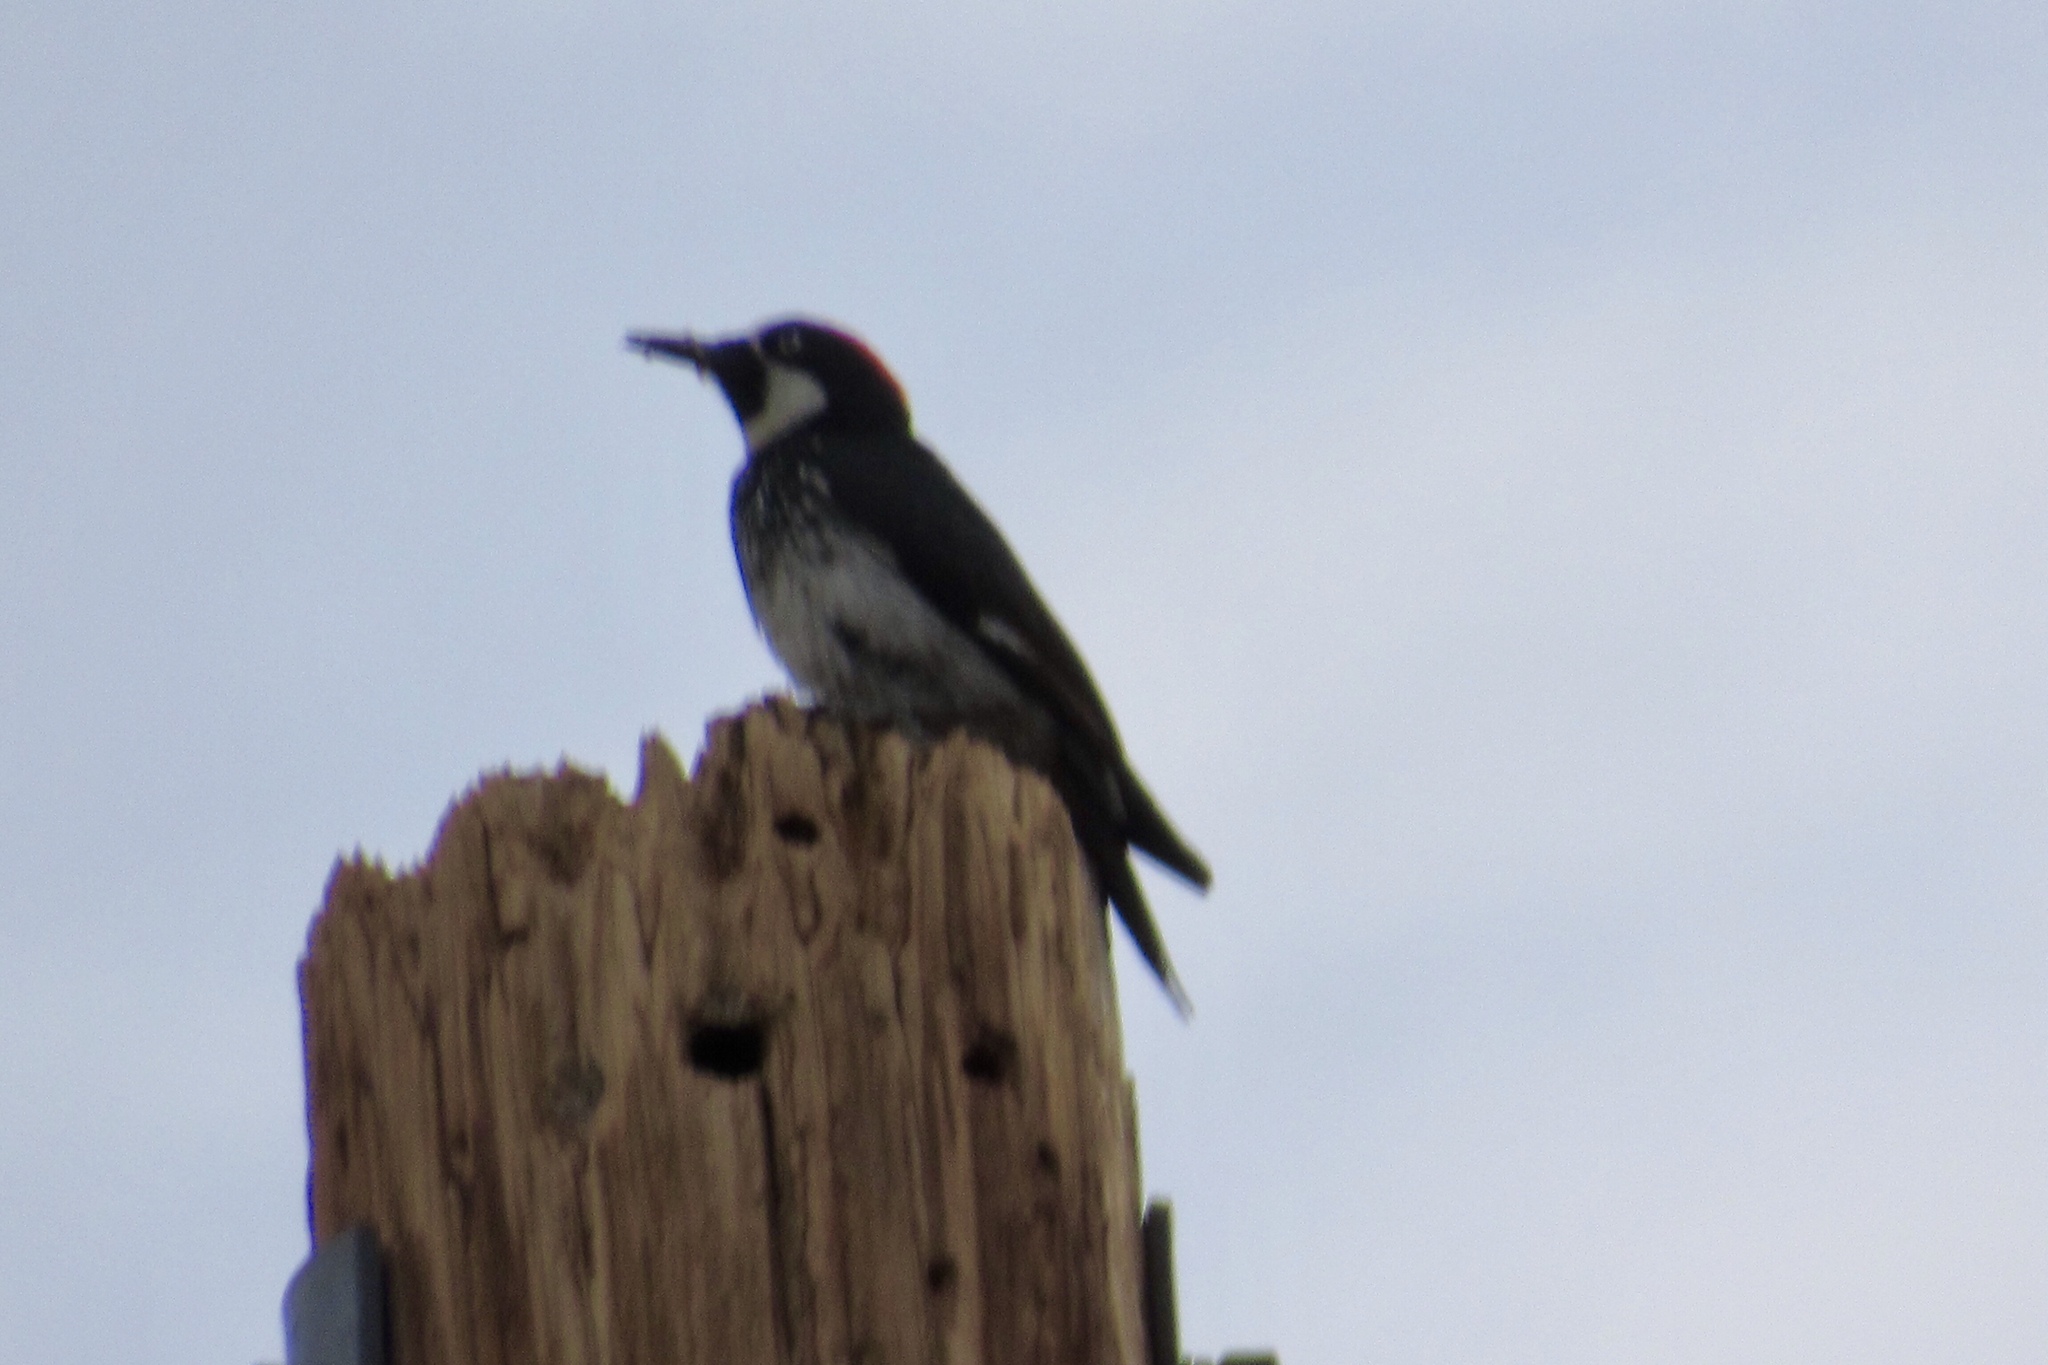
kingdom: Animalia
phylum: Chordata
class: Aves
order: Piciformes
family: Picidae
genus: Melanerpes
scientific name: Melanerpes formicivorus
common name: Acorn woodpecker
